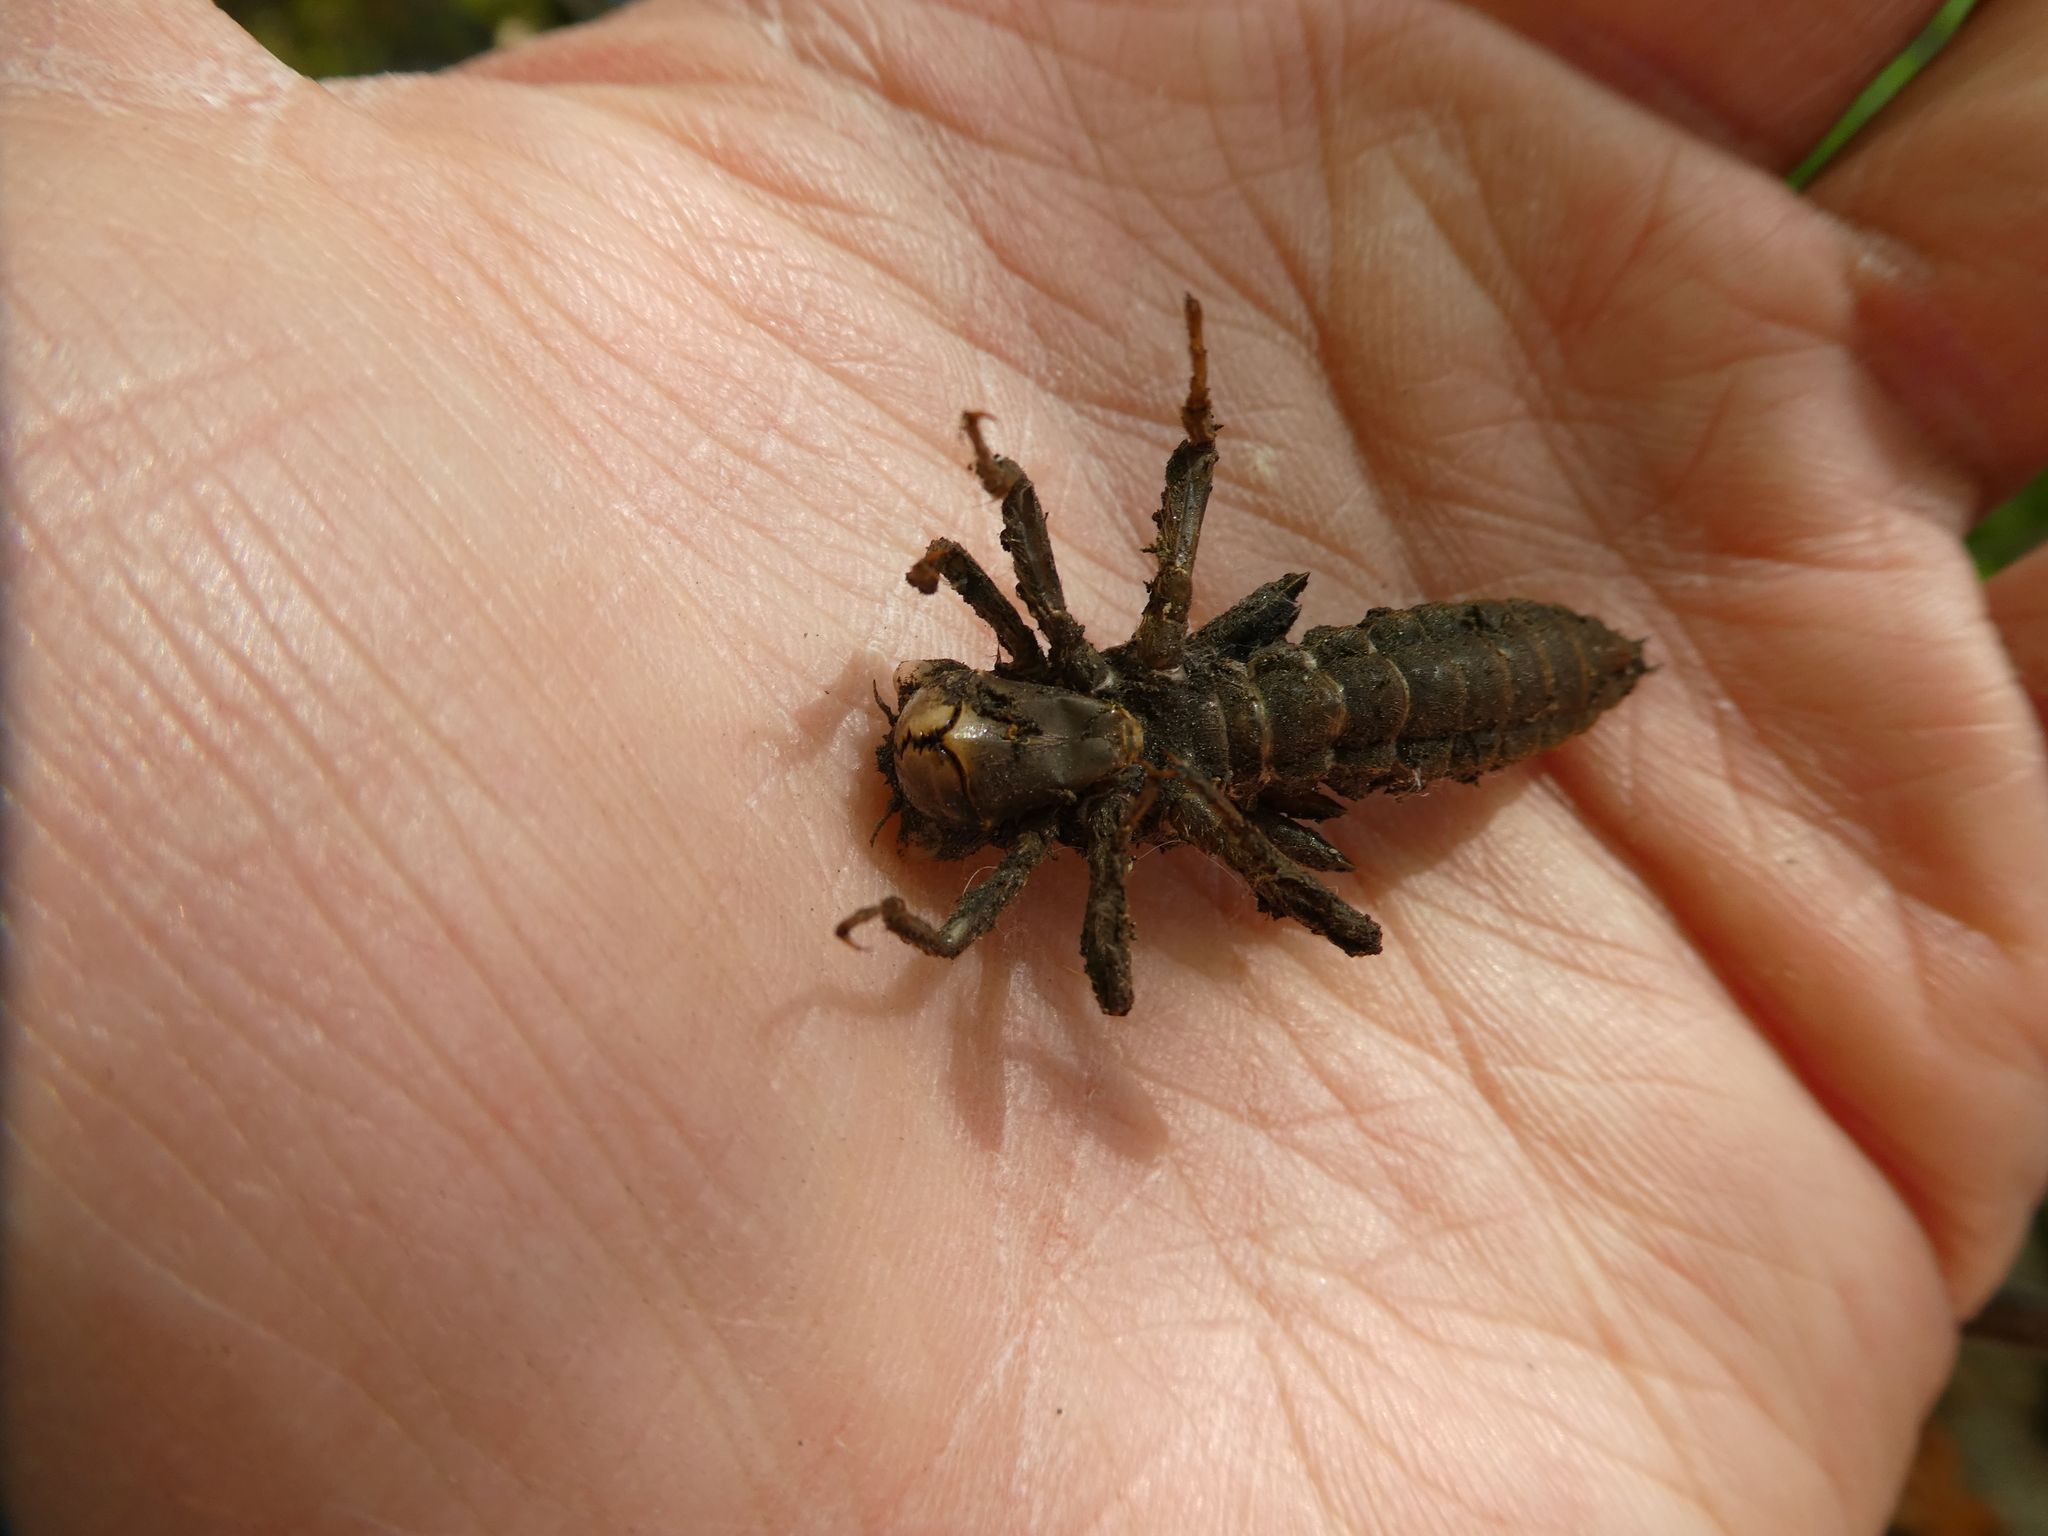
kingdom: Animalia
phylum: Arthropoda
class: Insecta
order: Odonata
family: Cordulegastridae
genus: Cordulegaster
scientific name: Cordulegaster dorsalis
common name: Pacific spiketail
